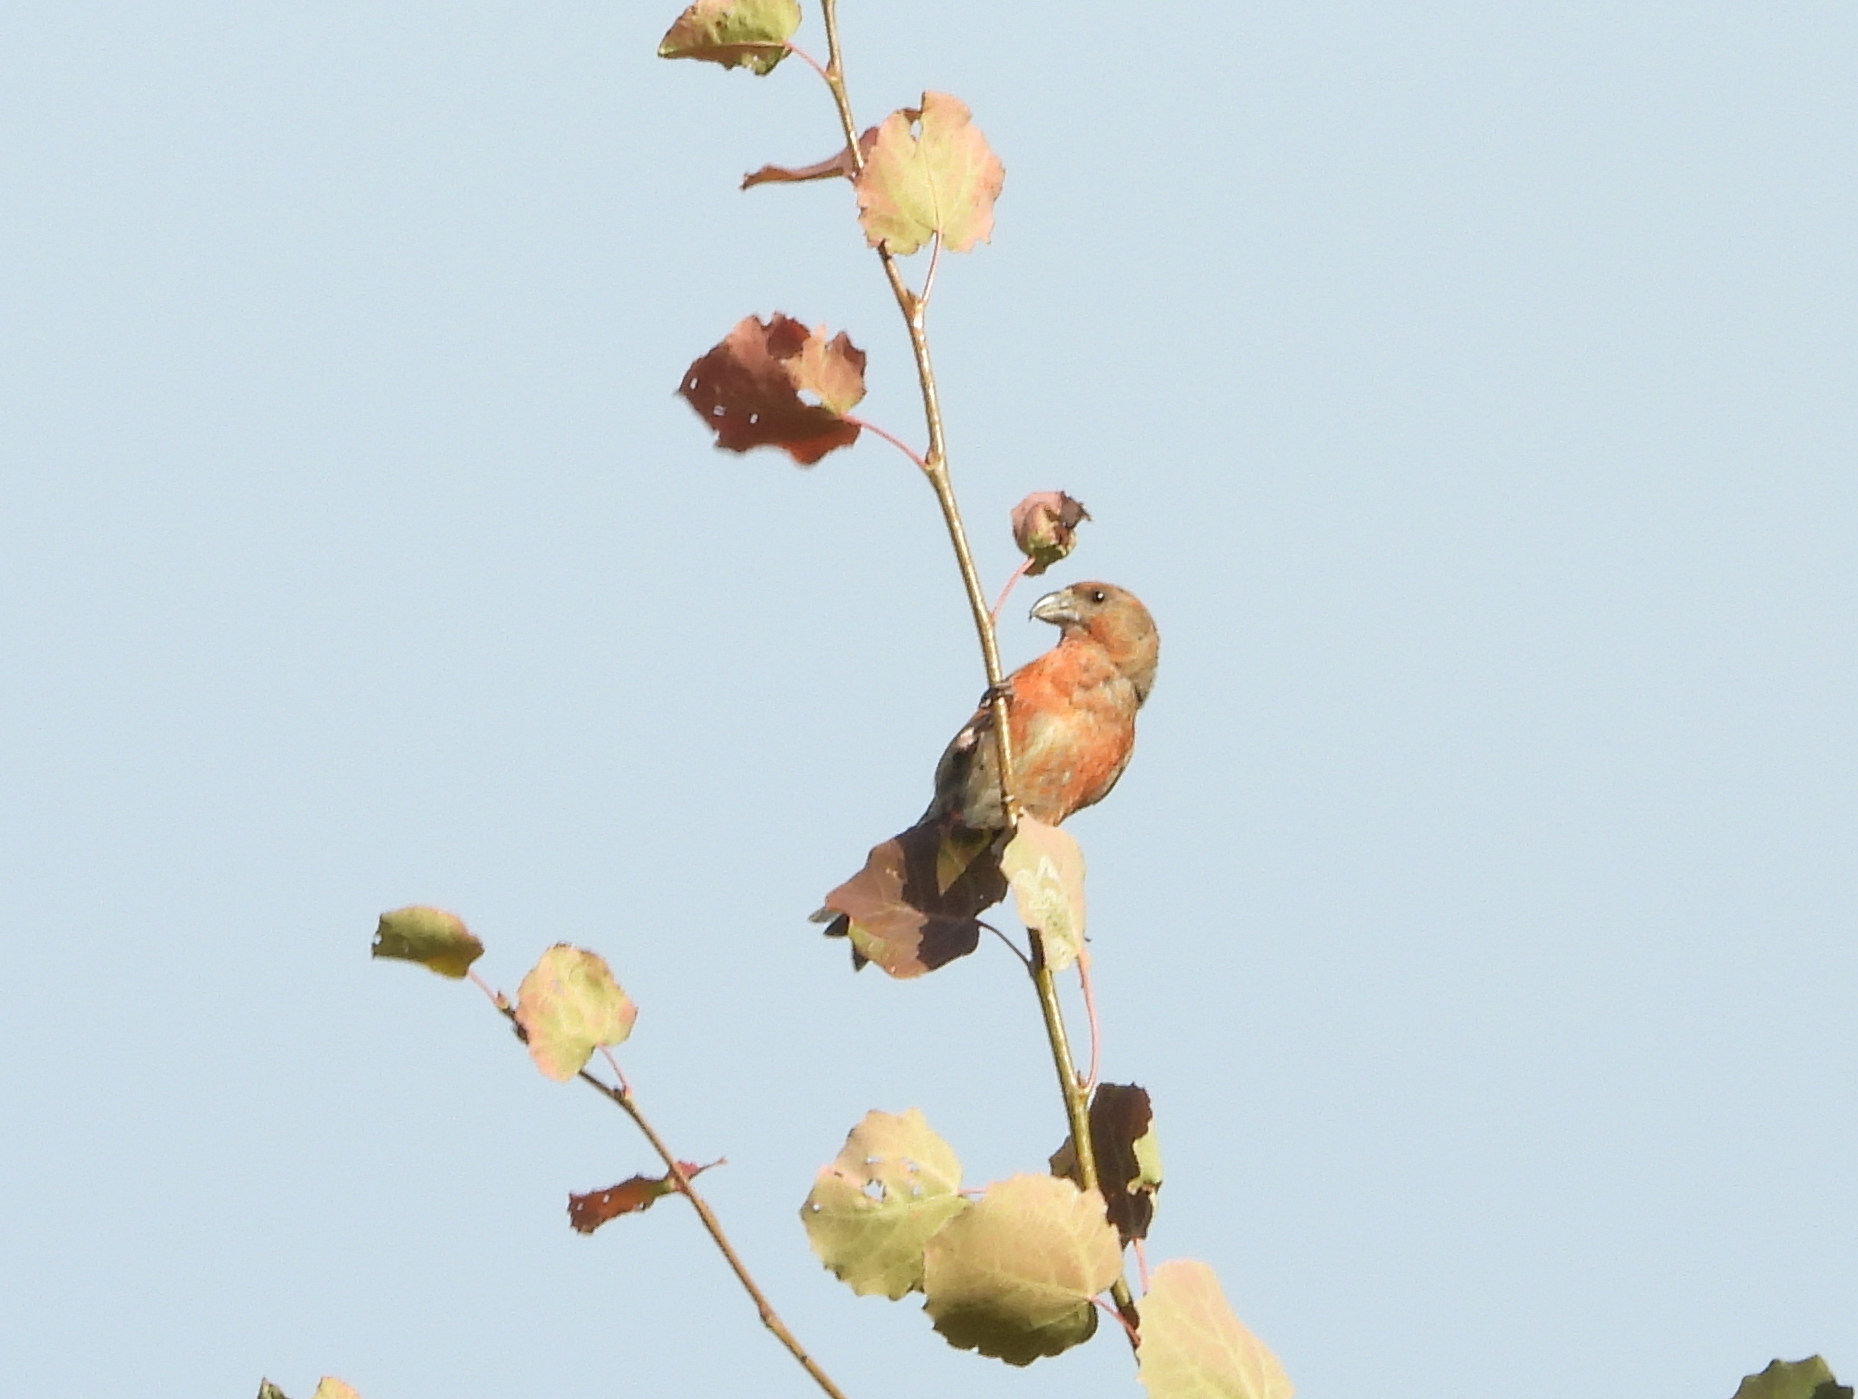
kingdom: Animalia
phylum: Chordata
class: Aves
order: Passeriformes
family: Fringillidae
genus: Loxia
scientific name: Loxia curvirostra
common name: Red crossbill
